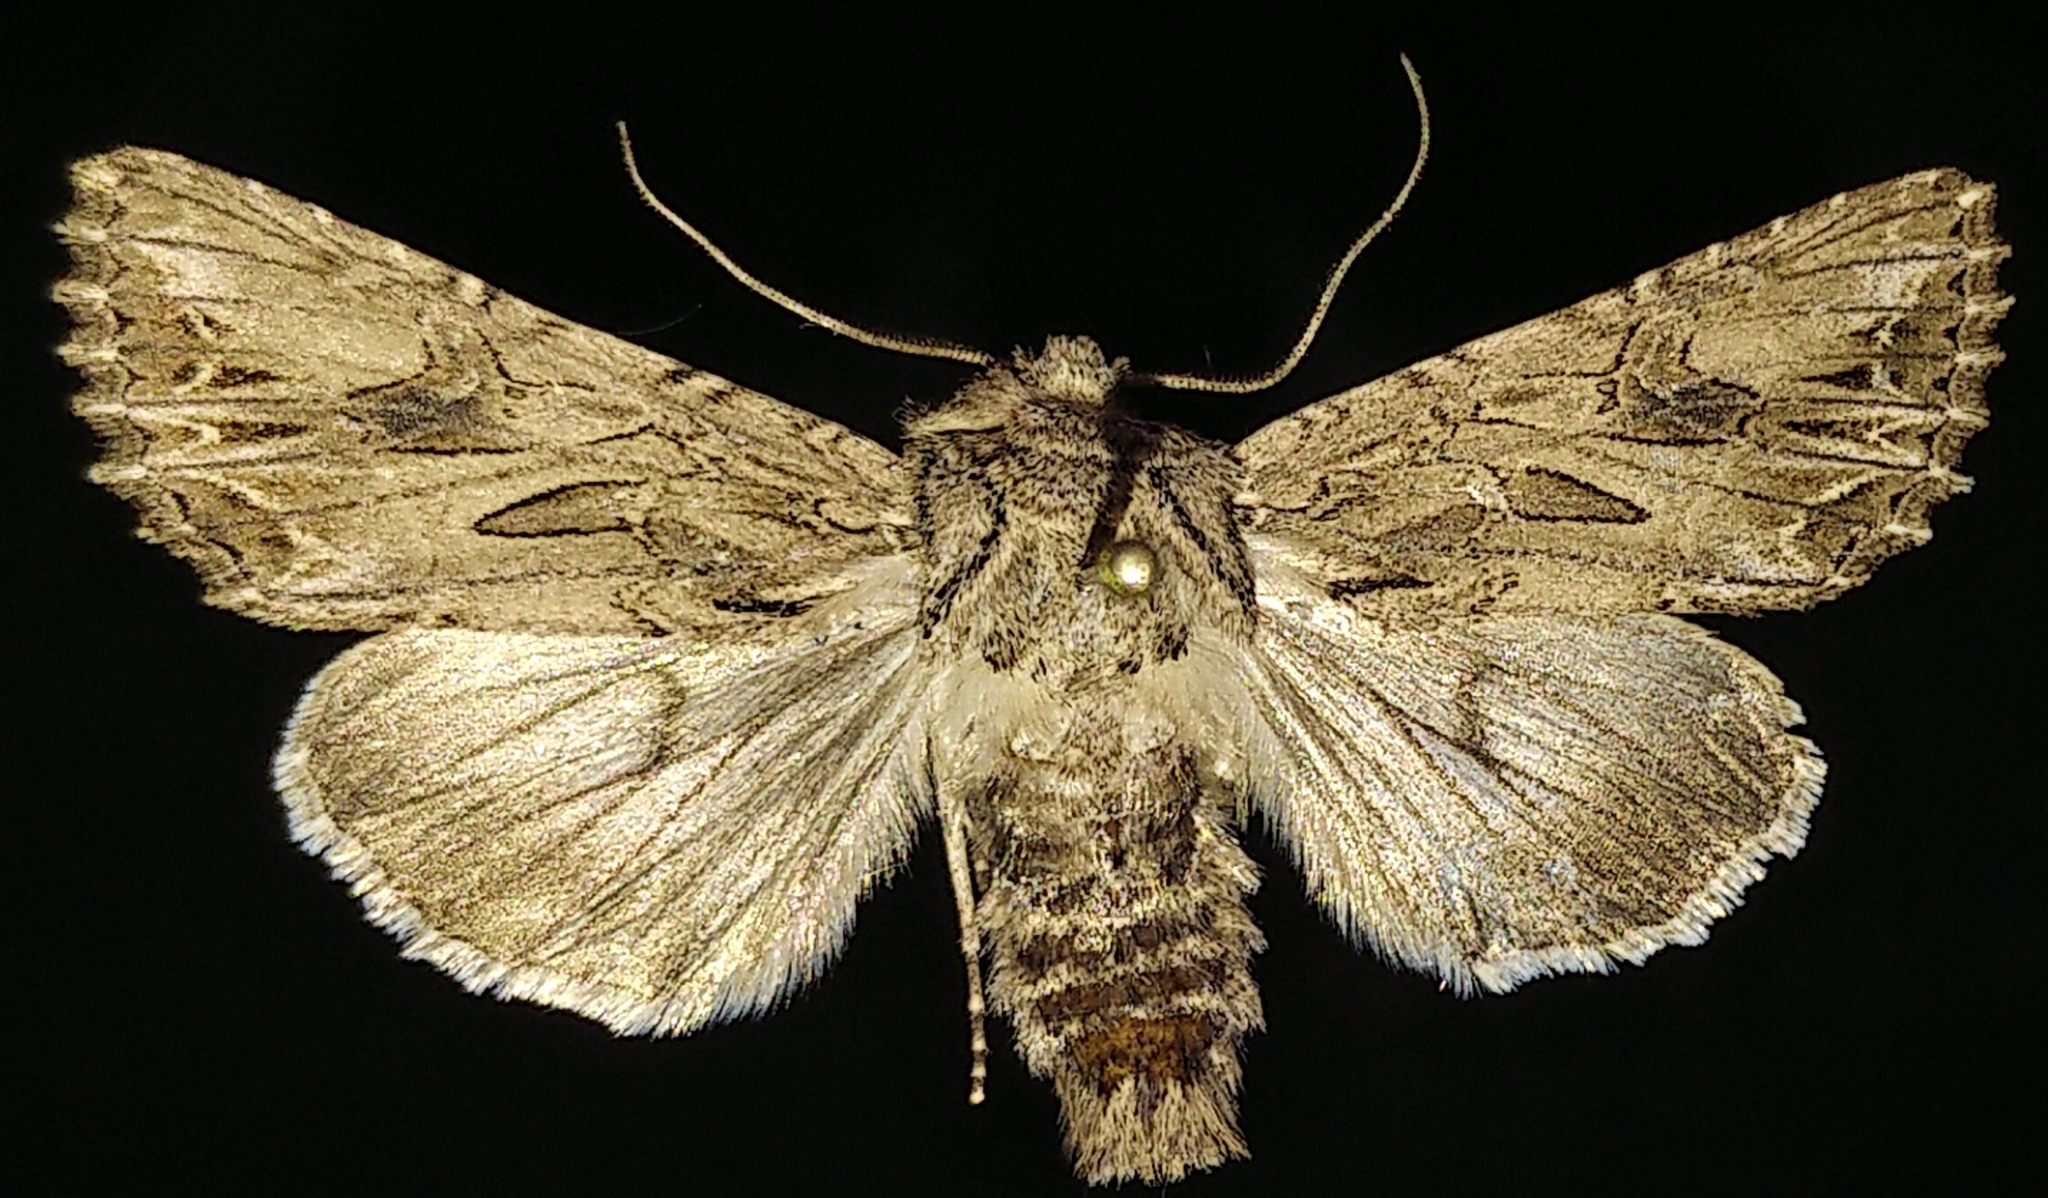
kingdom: Animalia
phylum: Arthropoda
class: Insecta
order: Lepidoptera
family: Noctuidae
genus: Anarta
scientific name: Anarta crotchii
